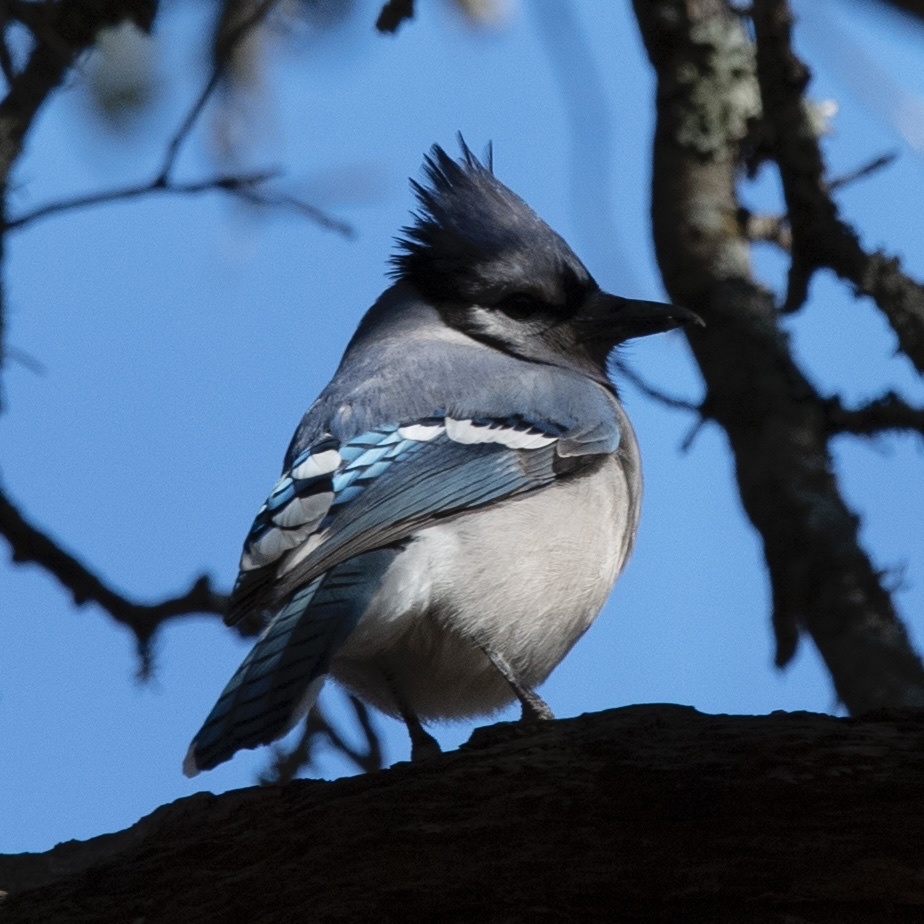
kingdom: Animalia
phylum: Chordata
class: Aves
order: Passeriformes
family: Corvidae
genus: Cyanocitta
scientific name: Cyanocitta cristata
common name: Blue jay
